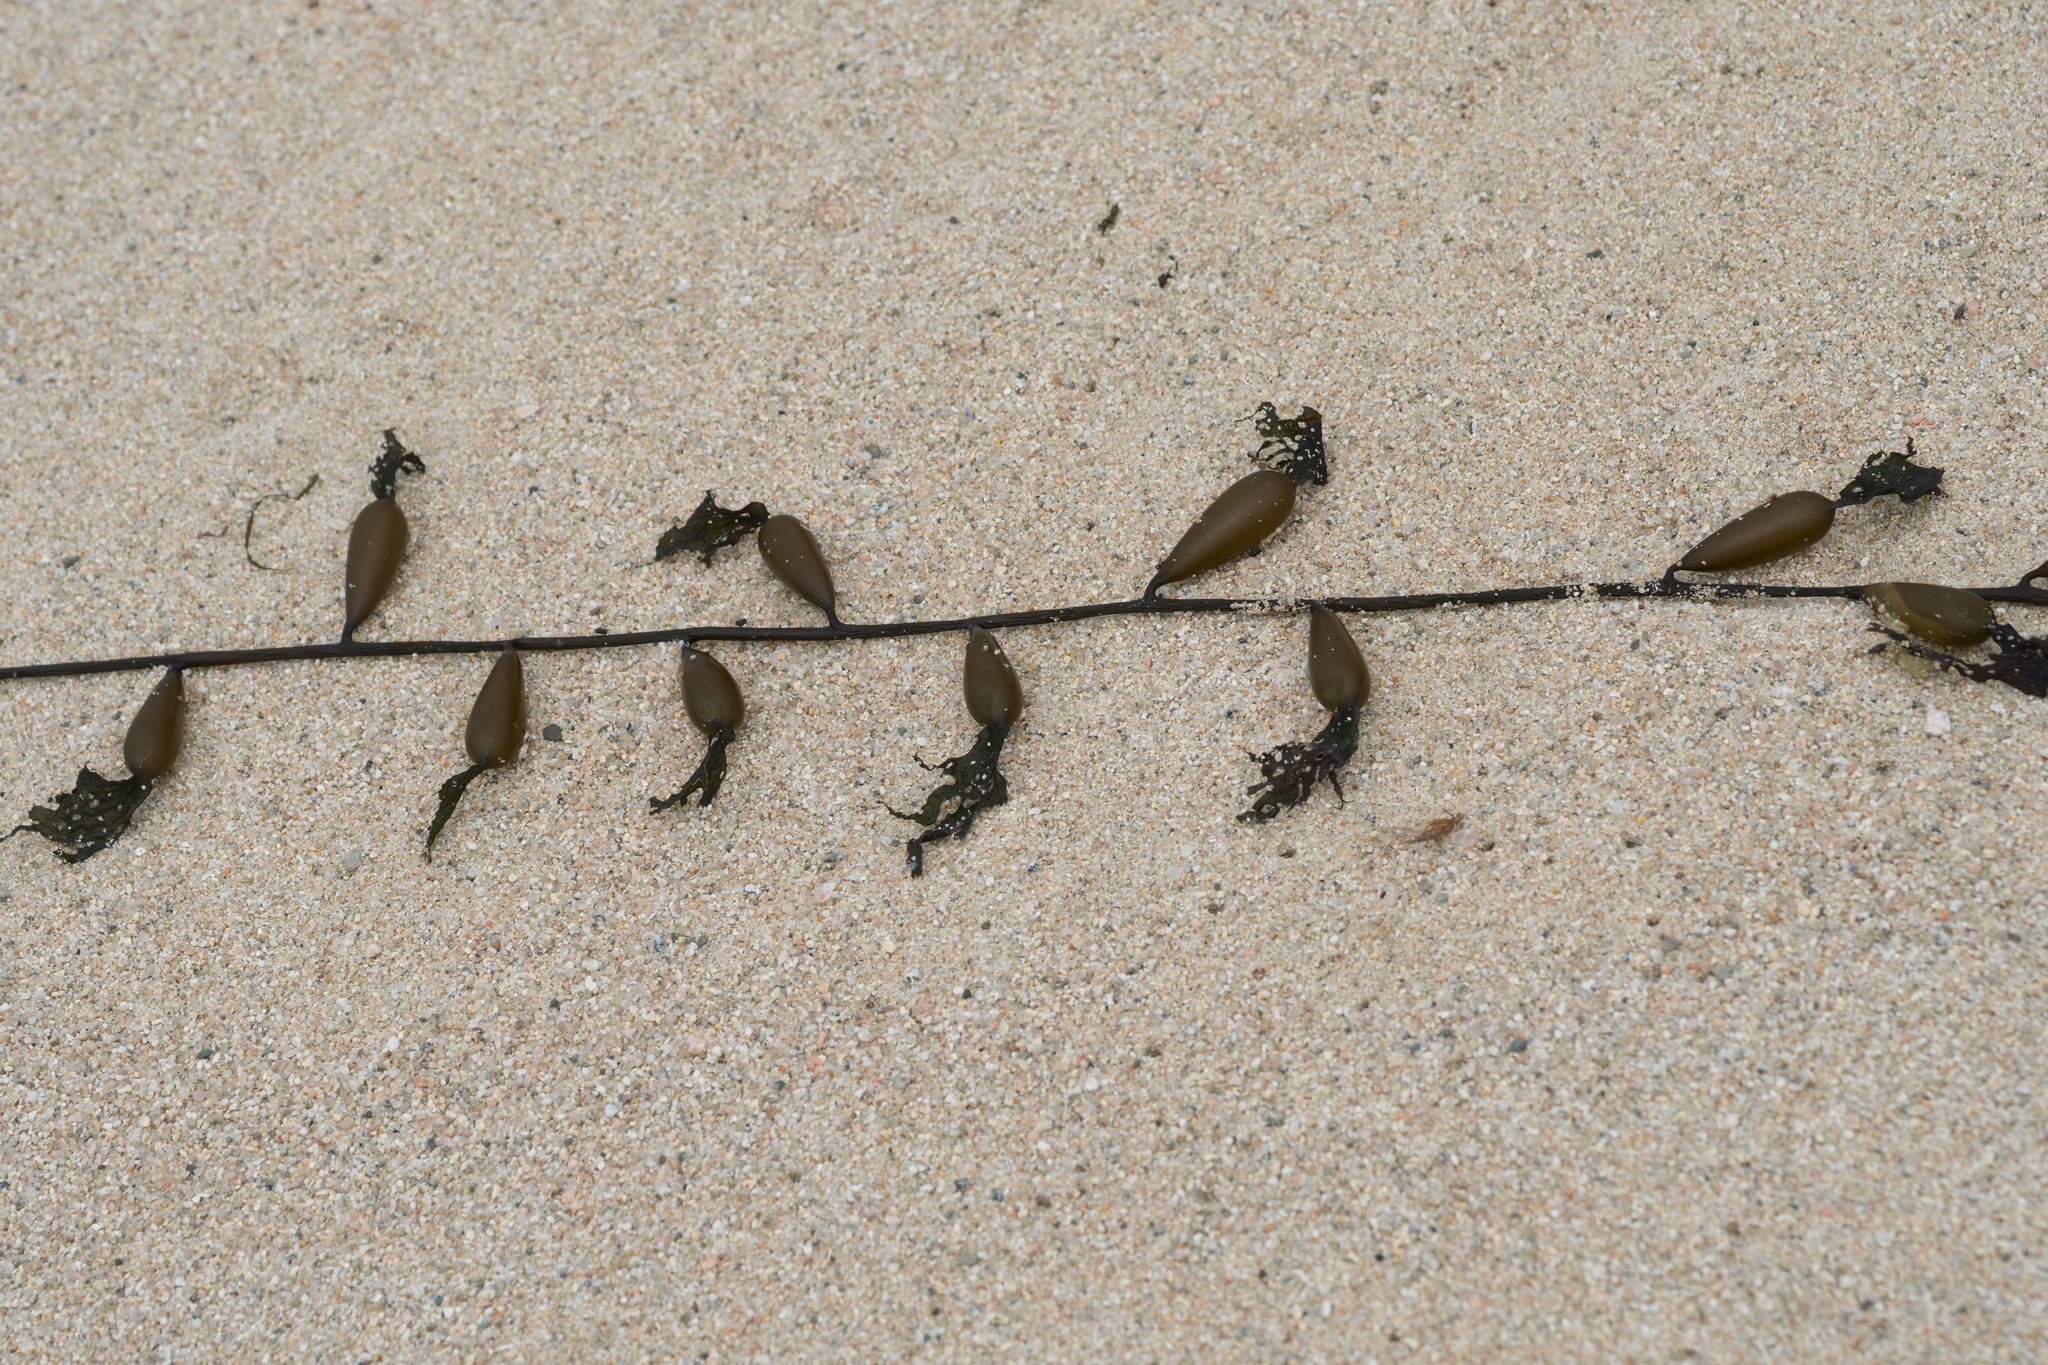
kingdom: Chromista
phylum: Ochrophyta
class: Phaeophyceae
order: Laminariales
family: Laminariaceae
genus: Macrocystis
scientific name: Macrocystis pyrifera
